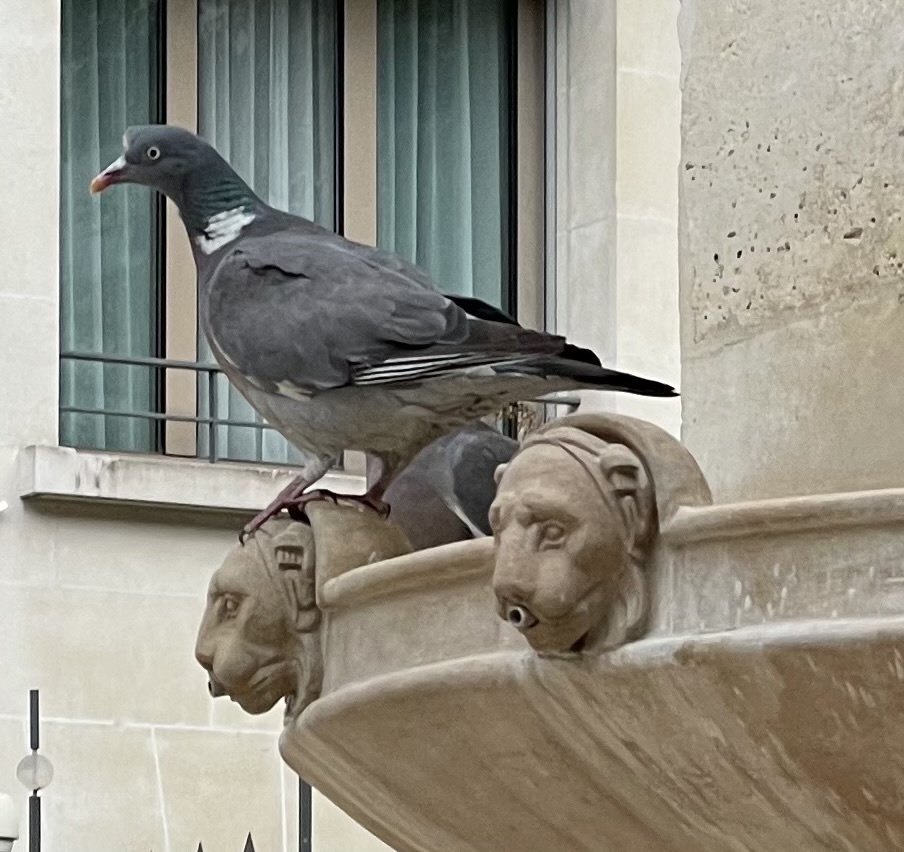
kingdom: Animalia
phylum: Chordata
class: Aves
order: Columbiformes
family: Columbidae
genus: Columba
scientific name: Columba palumbus
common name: Common wood pigeon
